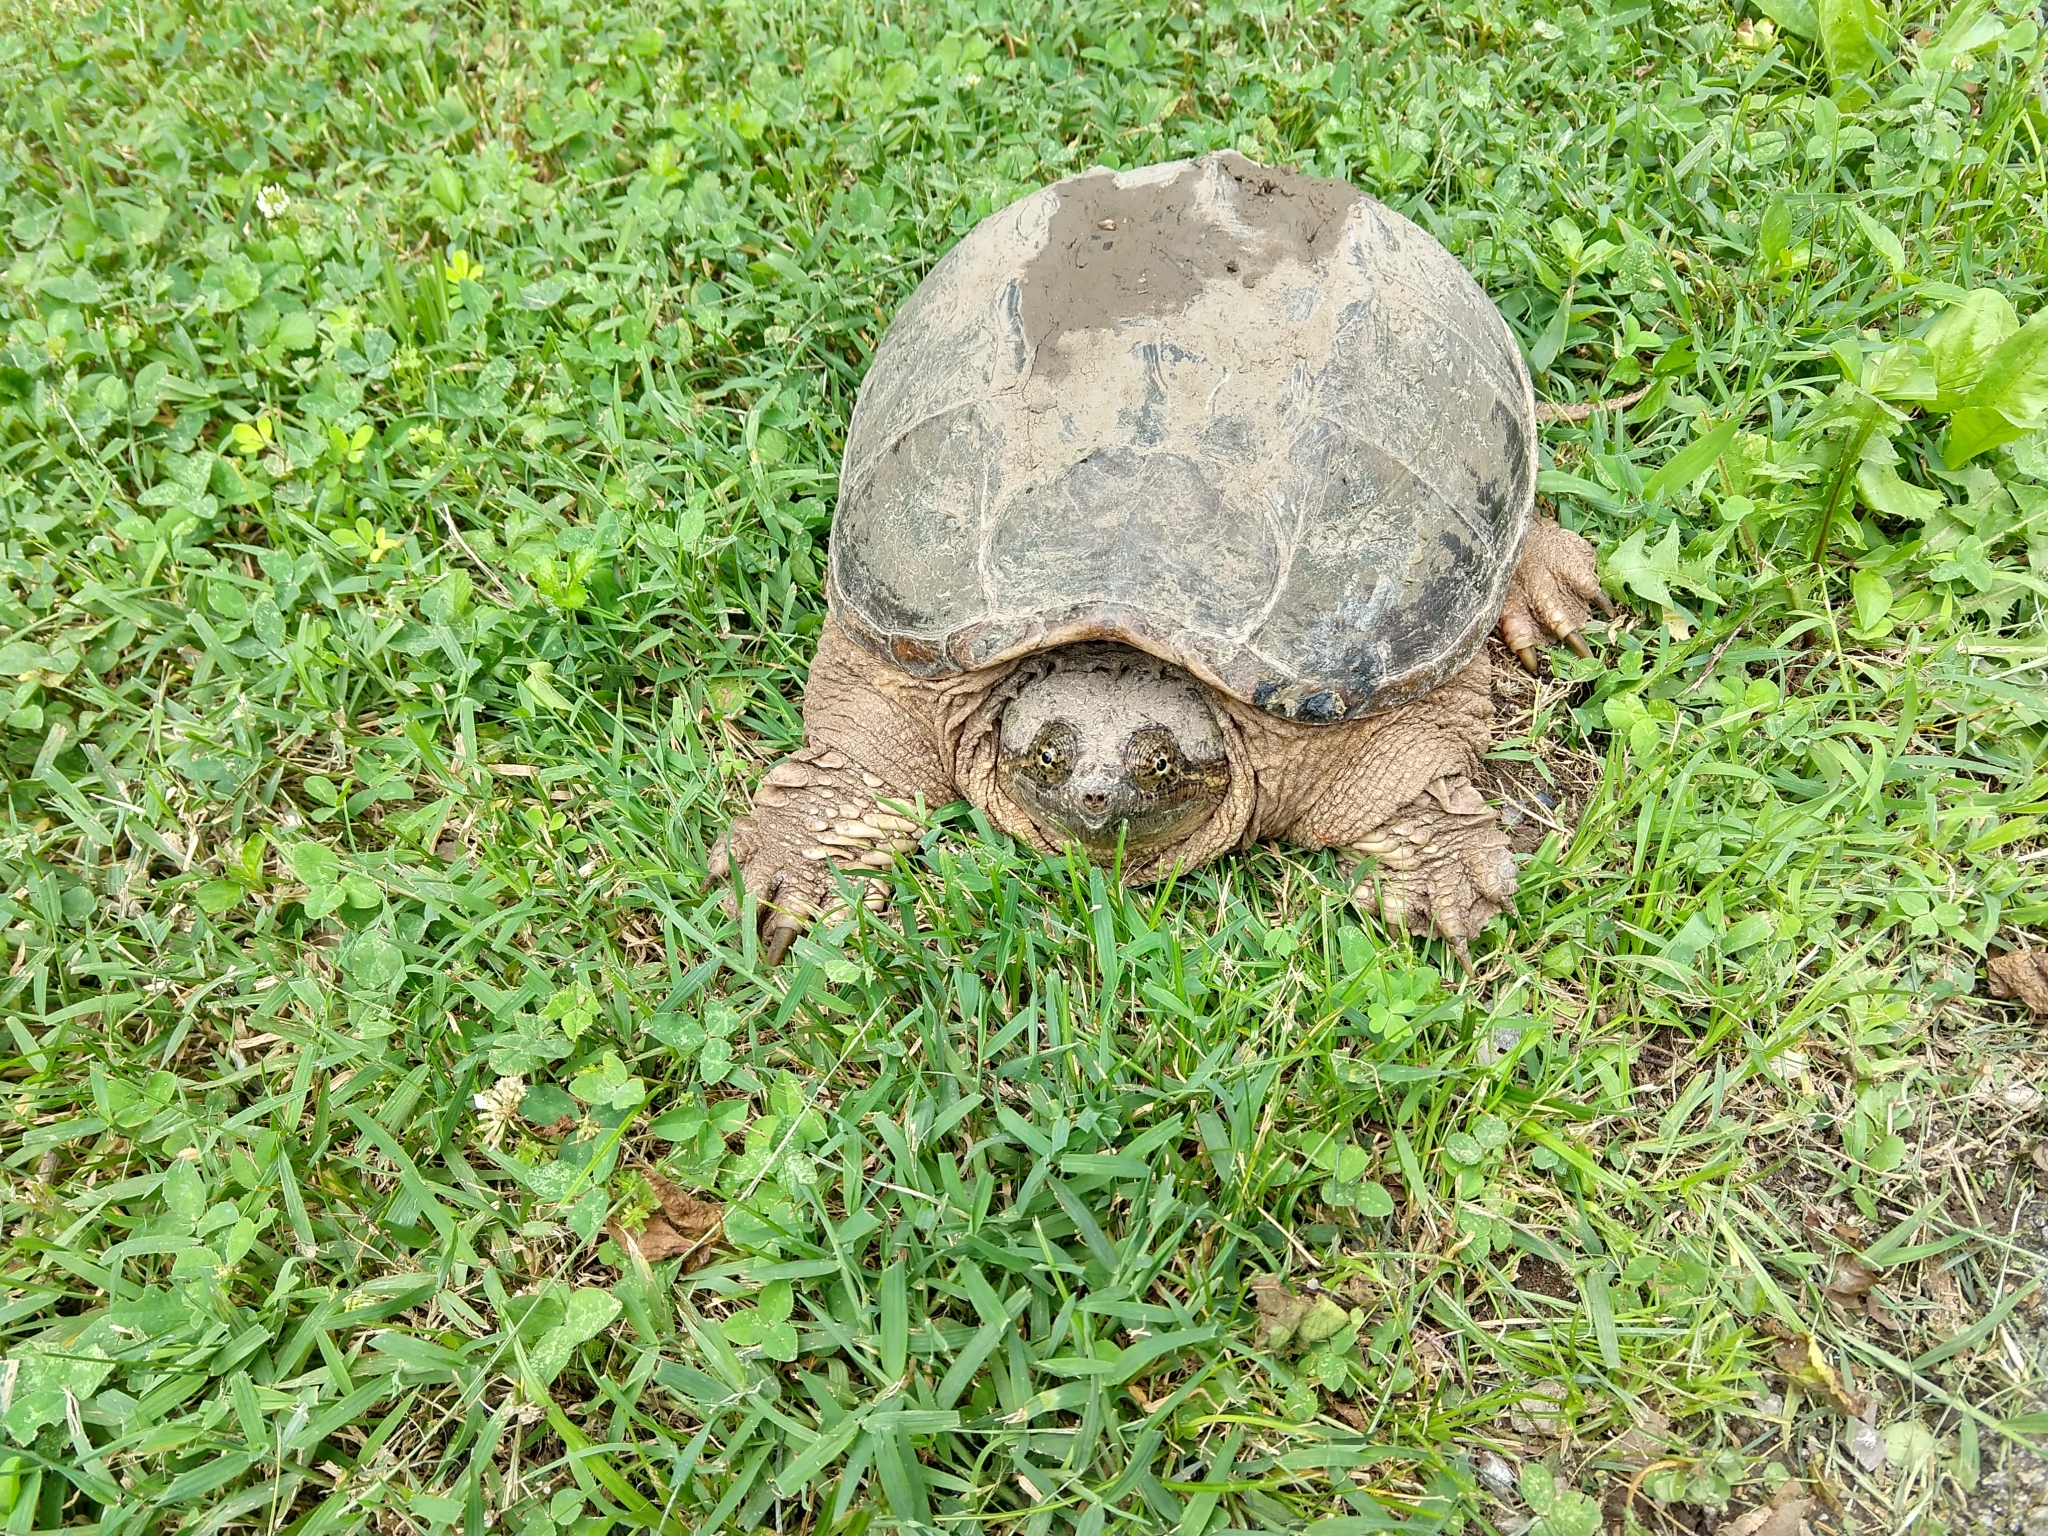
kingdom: Animalia
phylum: Chordata
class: Testudines
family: Chelydridae
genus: Chelydra
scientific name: Chelydra serpentina
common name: Common snapping turtle
